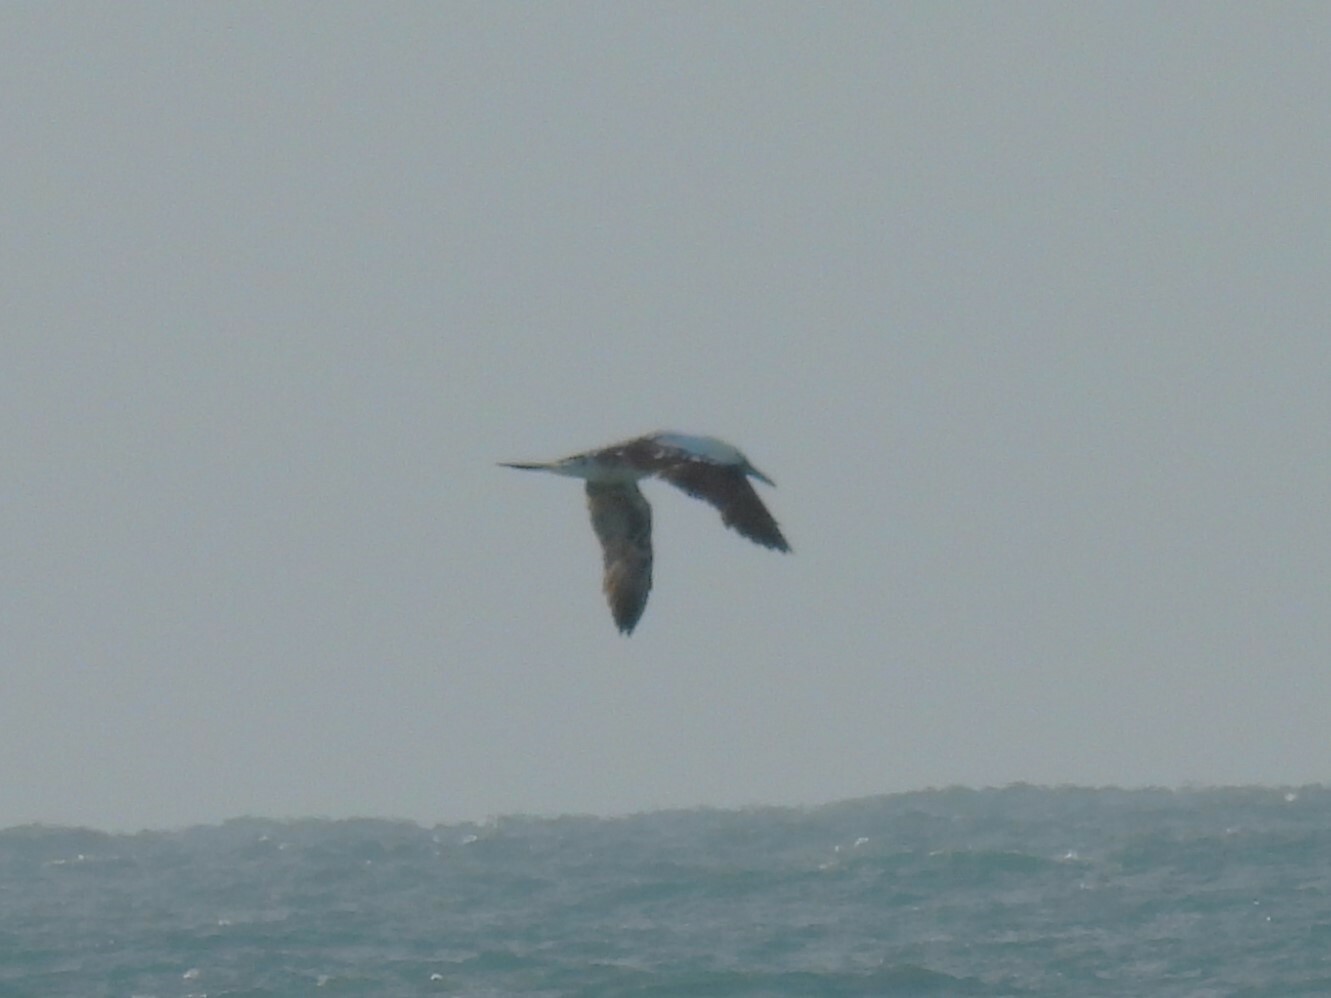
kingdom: Animalia
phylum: Chordata
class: Aves
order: Suliformes
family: Sulidae
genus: Morus
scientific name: Morus bassanus
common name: Northern gannet
